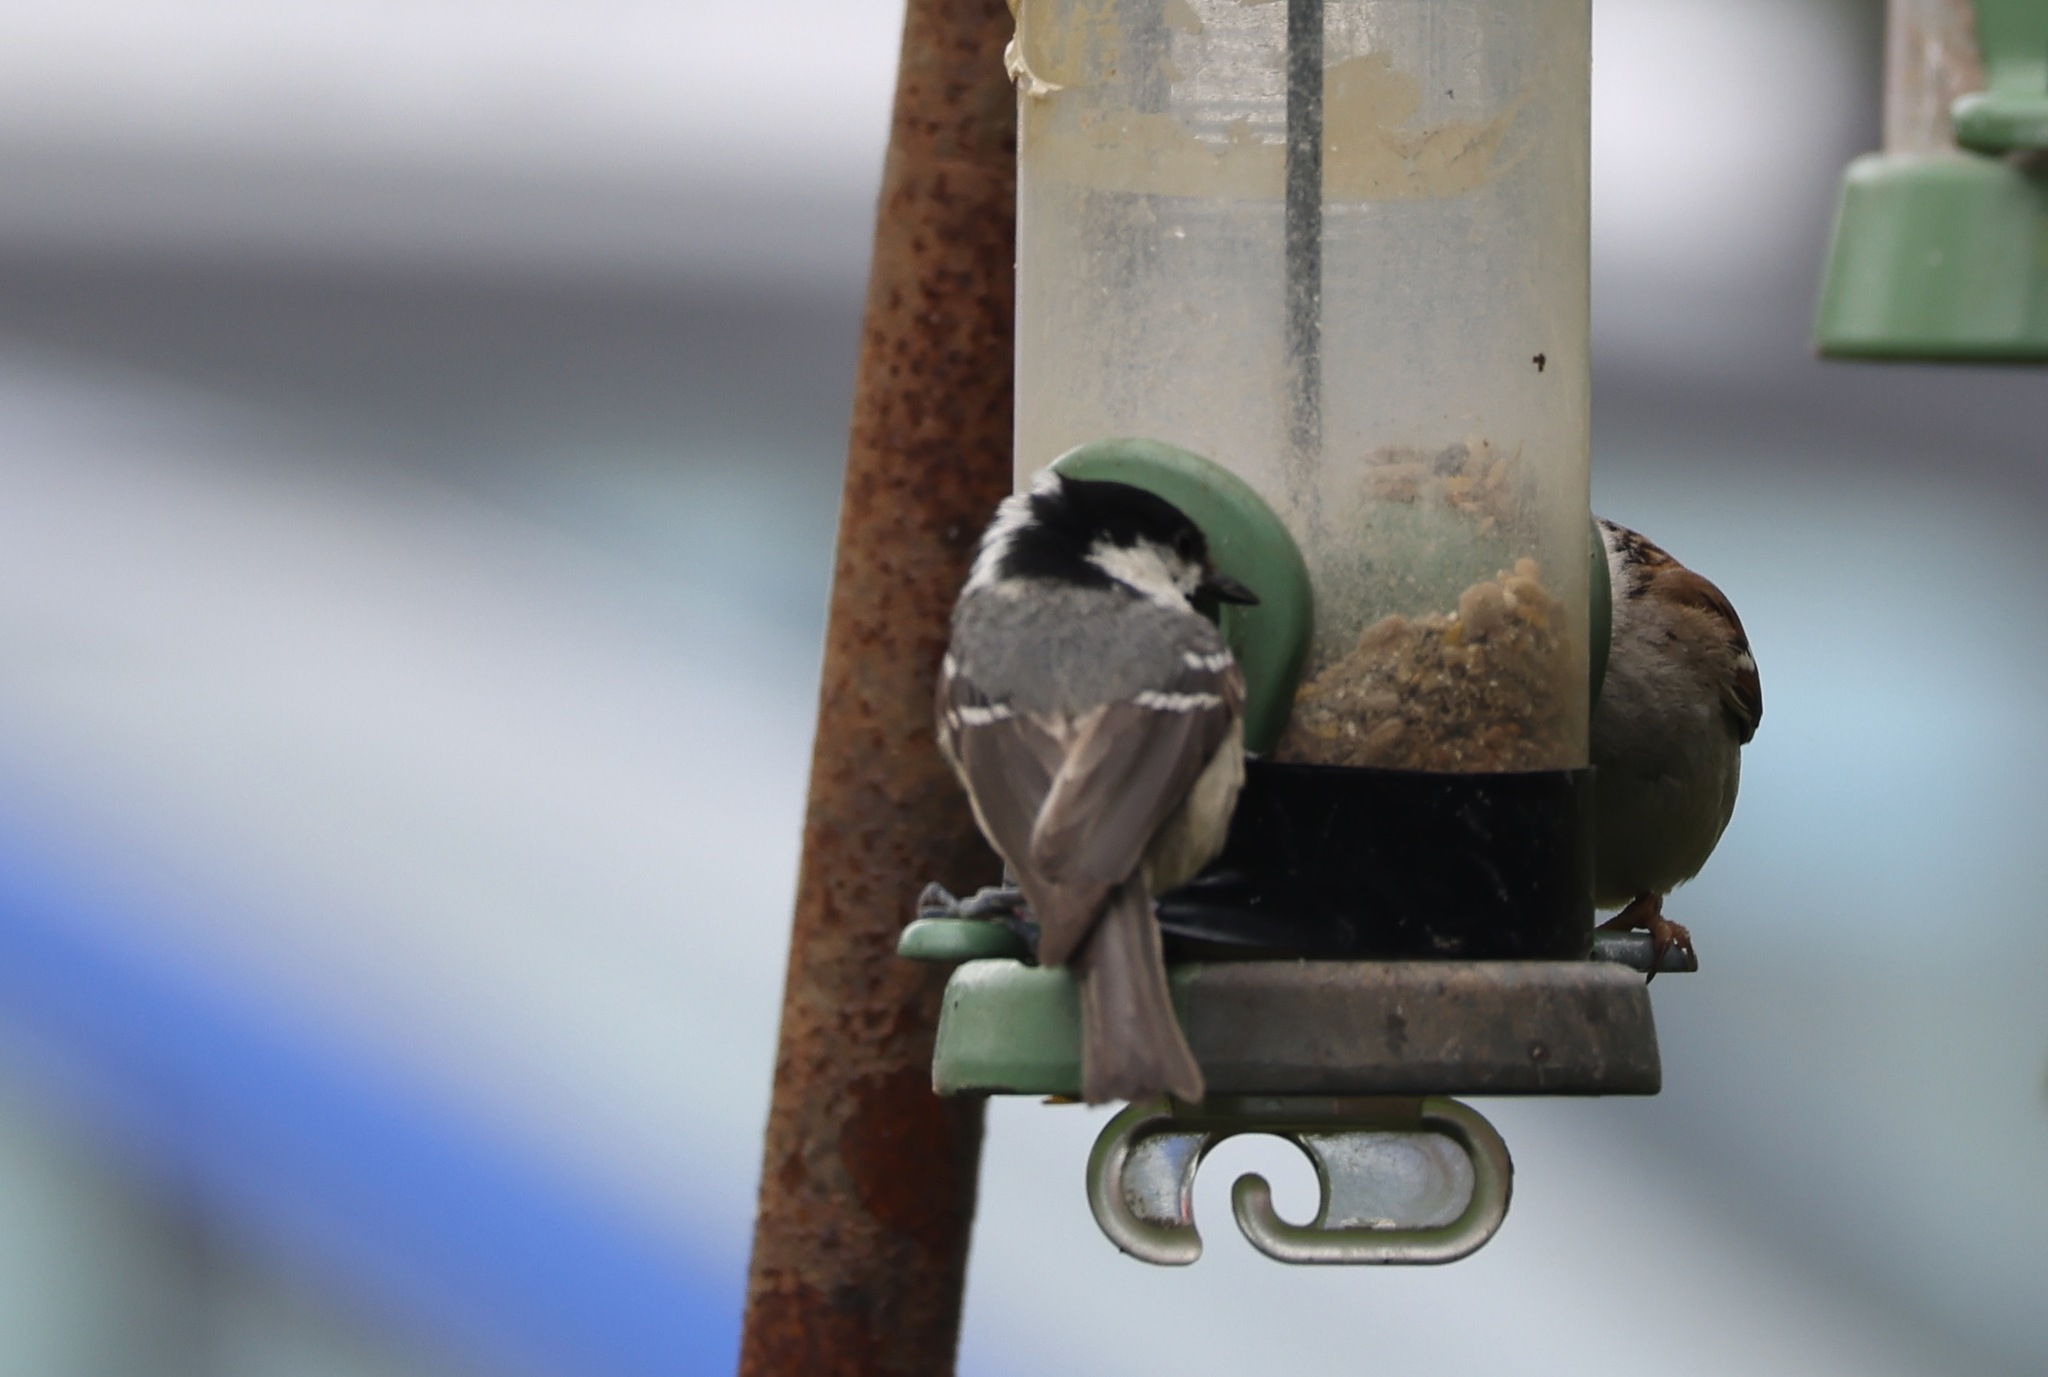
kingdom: Animalia
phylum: Chordata
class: Aves
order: Passeriformes
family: Paridae
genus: Periparus
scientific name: Periparus ater
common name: Coal tit
